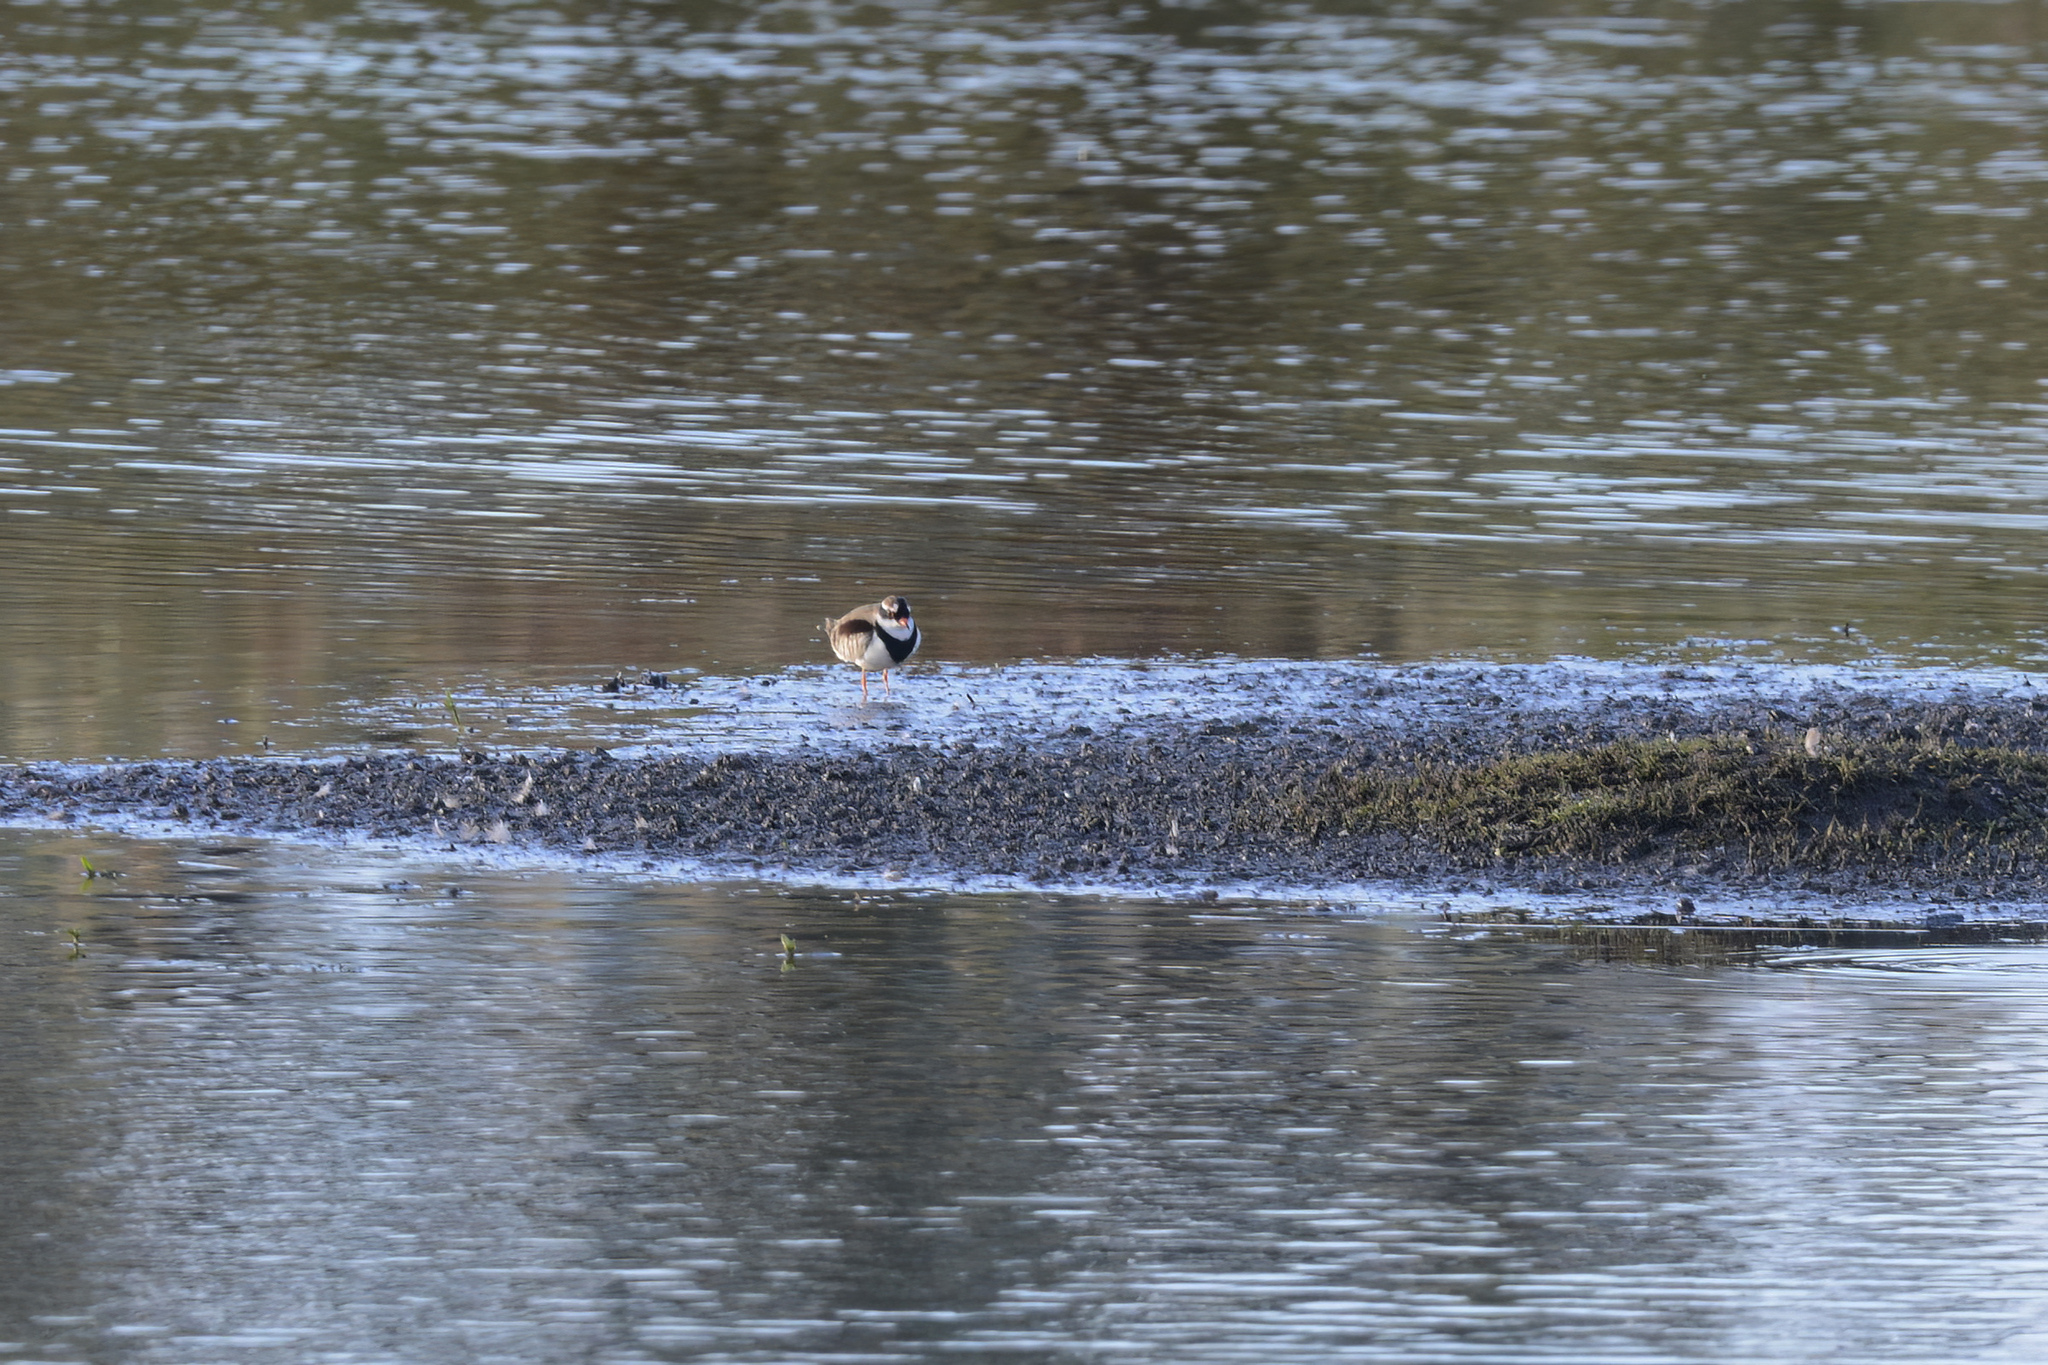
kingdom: Animalia
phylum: Chordata
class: Aves
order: Charadriiformes
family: Charadriidae
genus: Elseyornis
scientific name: Elseyornis melanops
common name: Black-fronted dotterel
